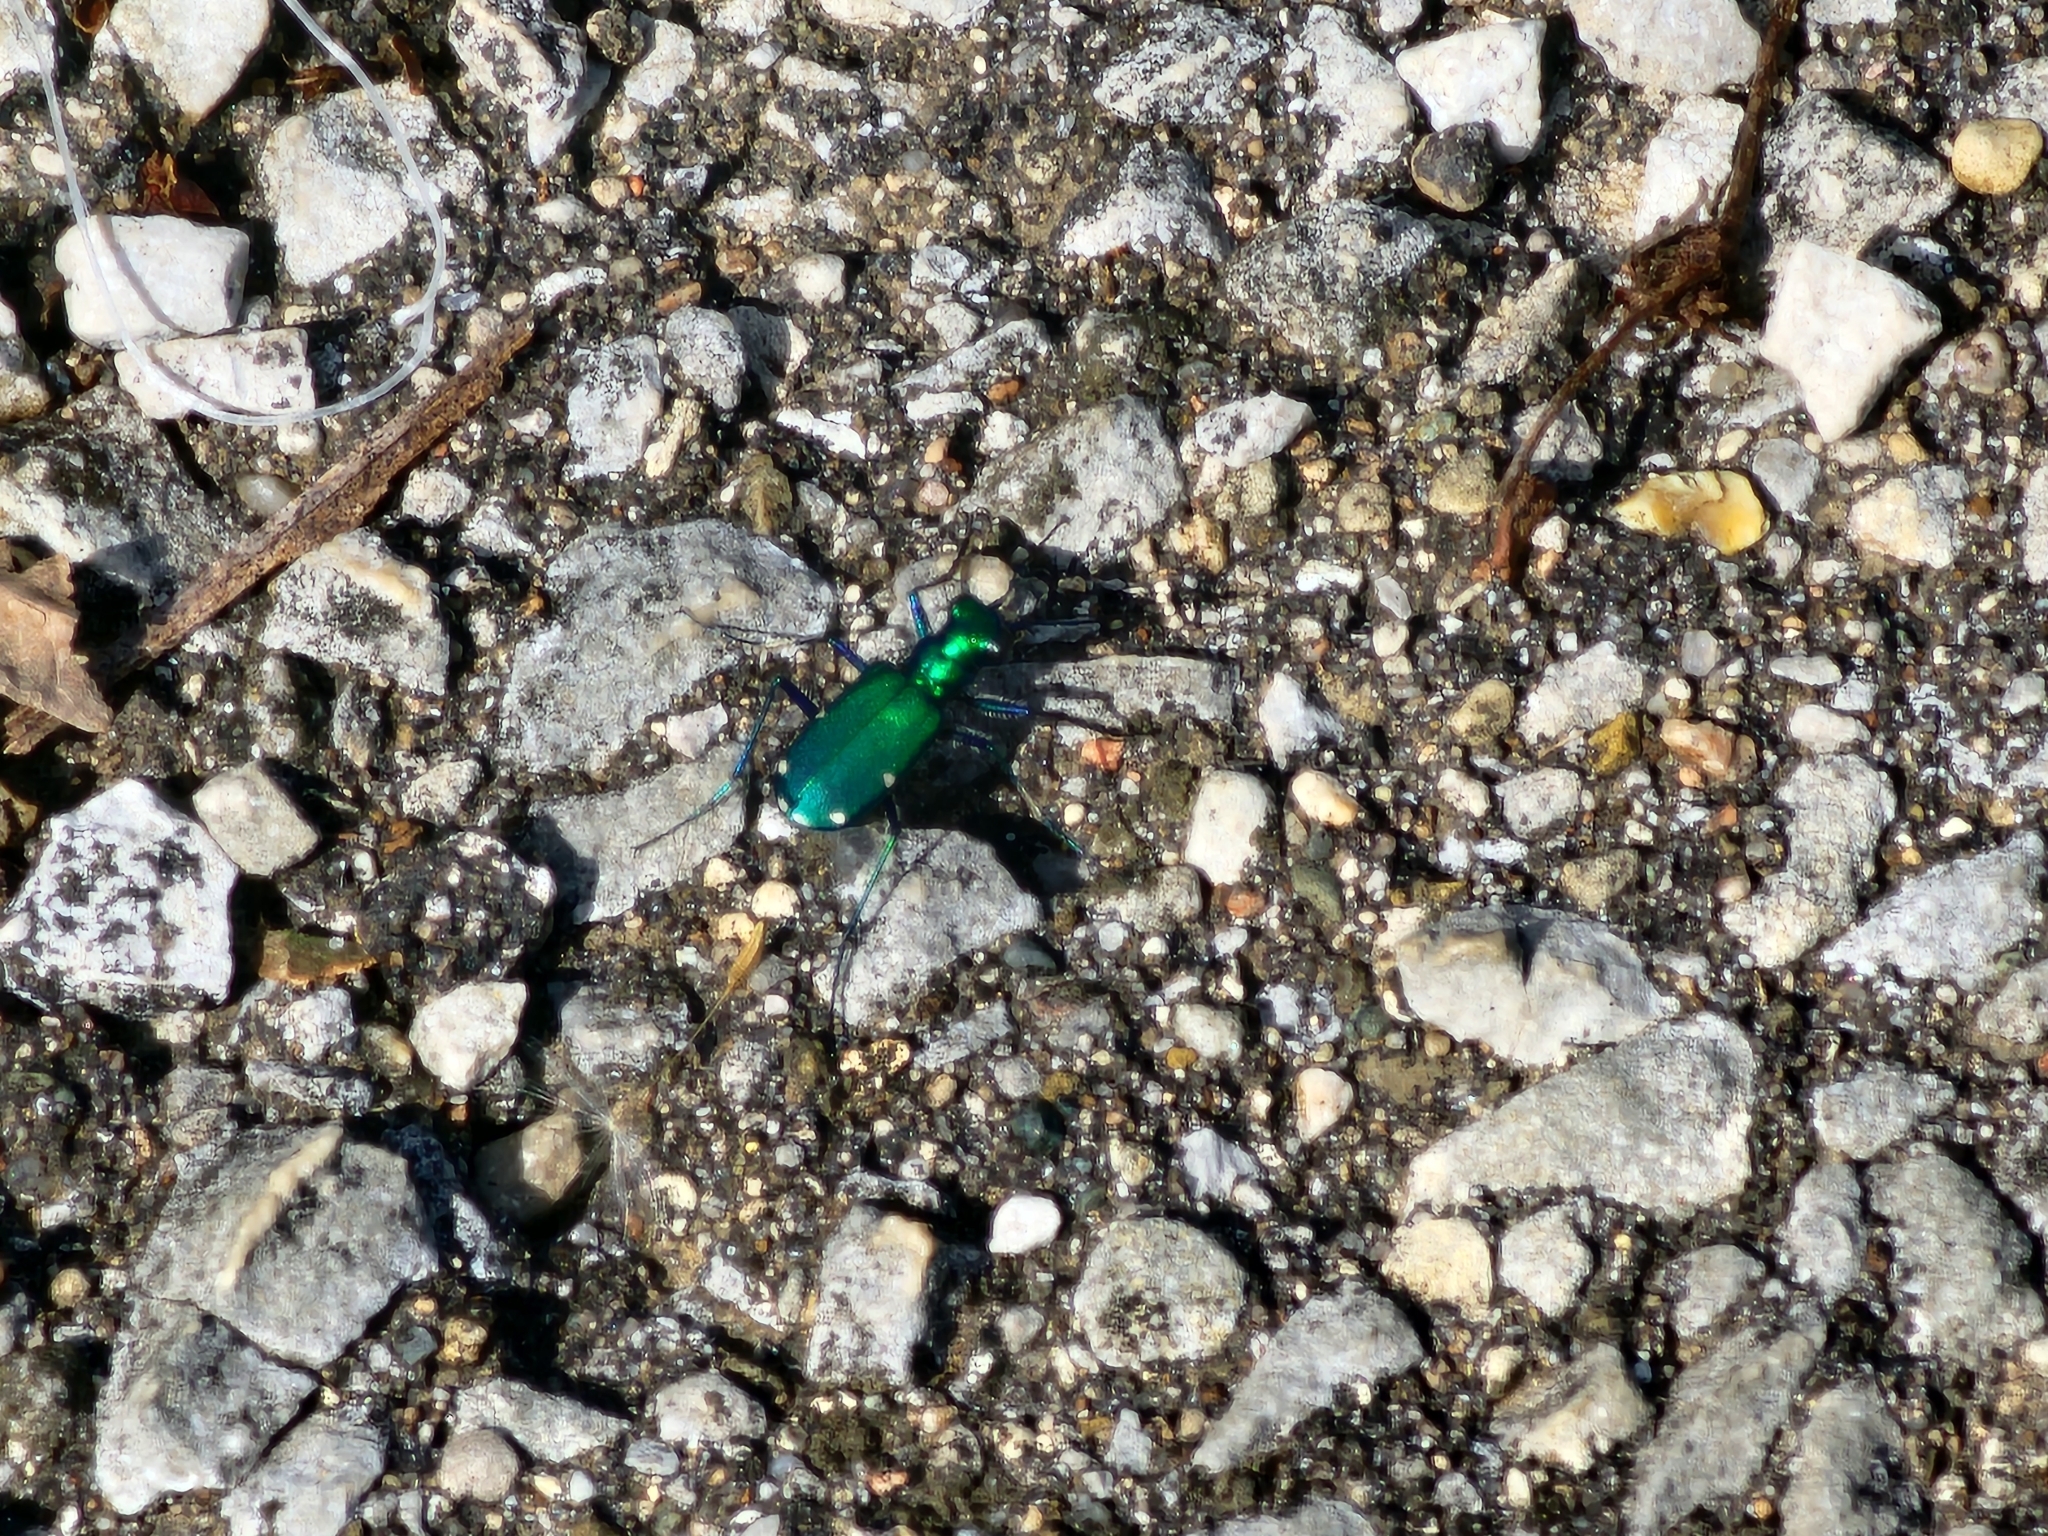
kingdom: Animalia
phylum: Arthropoda
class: Insecta
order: Coleoptera
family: Carabidae
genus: Cicindela
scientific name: Cicindela sexguttata
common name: Six-spotted tiger beetle
